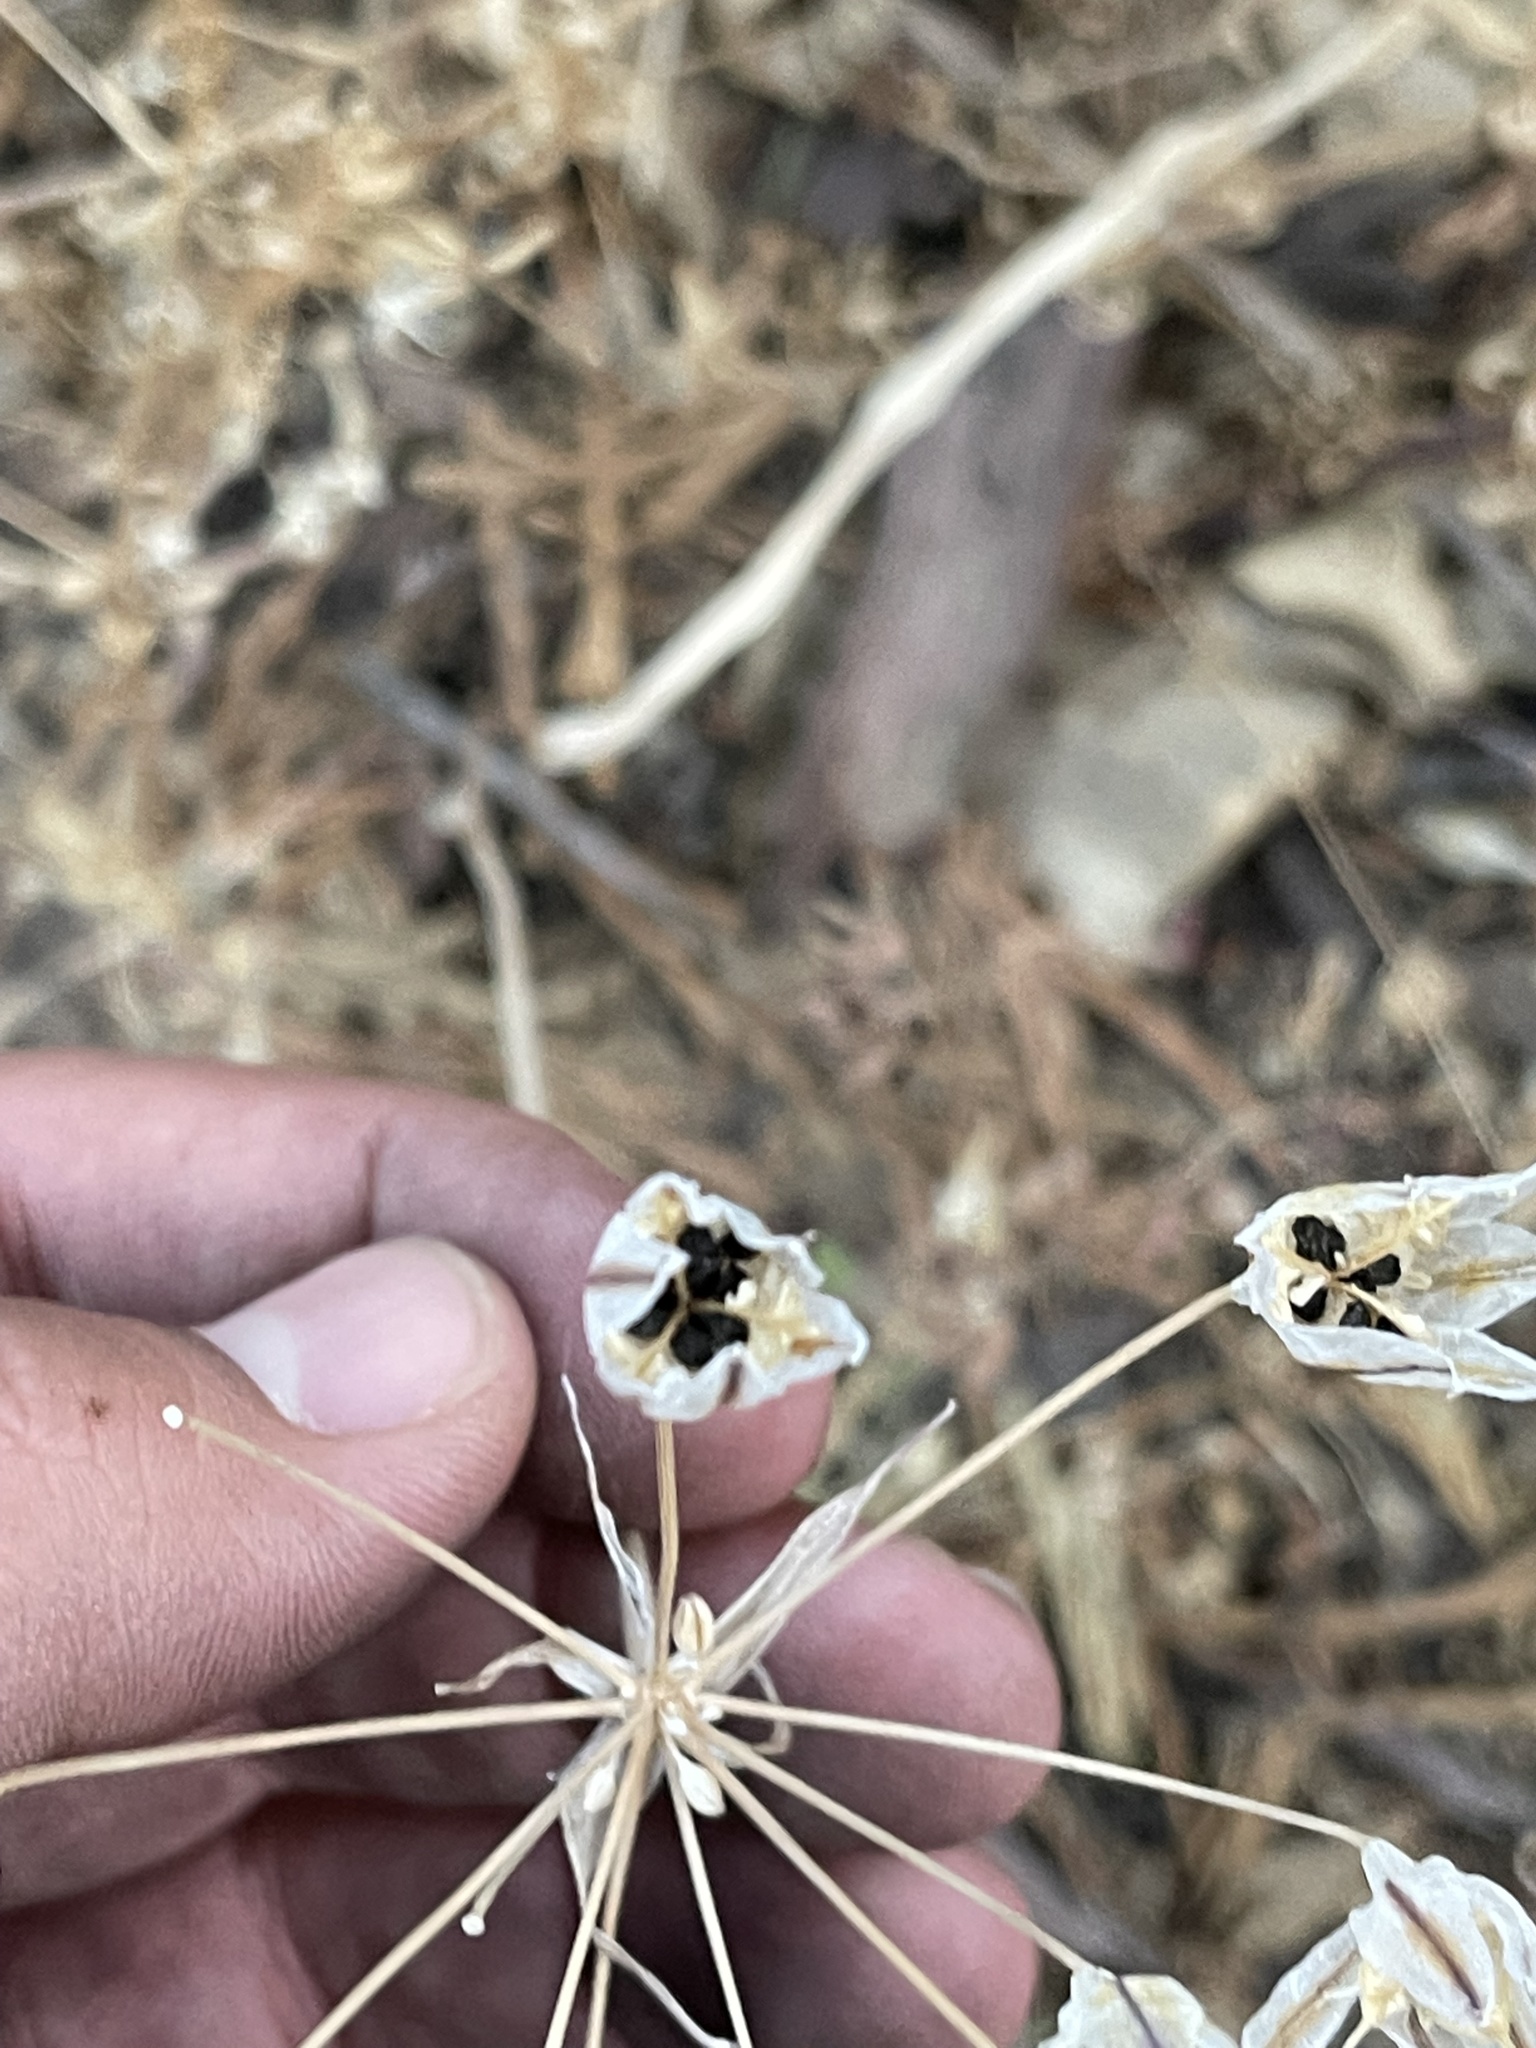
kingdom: Plantae
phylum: Tracheophyta
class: Liliopsida
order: Asparagales
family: Asparagaceae
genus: Triteleia
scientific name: Triteleia laxa
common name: Triplet-lily
